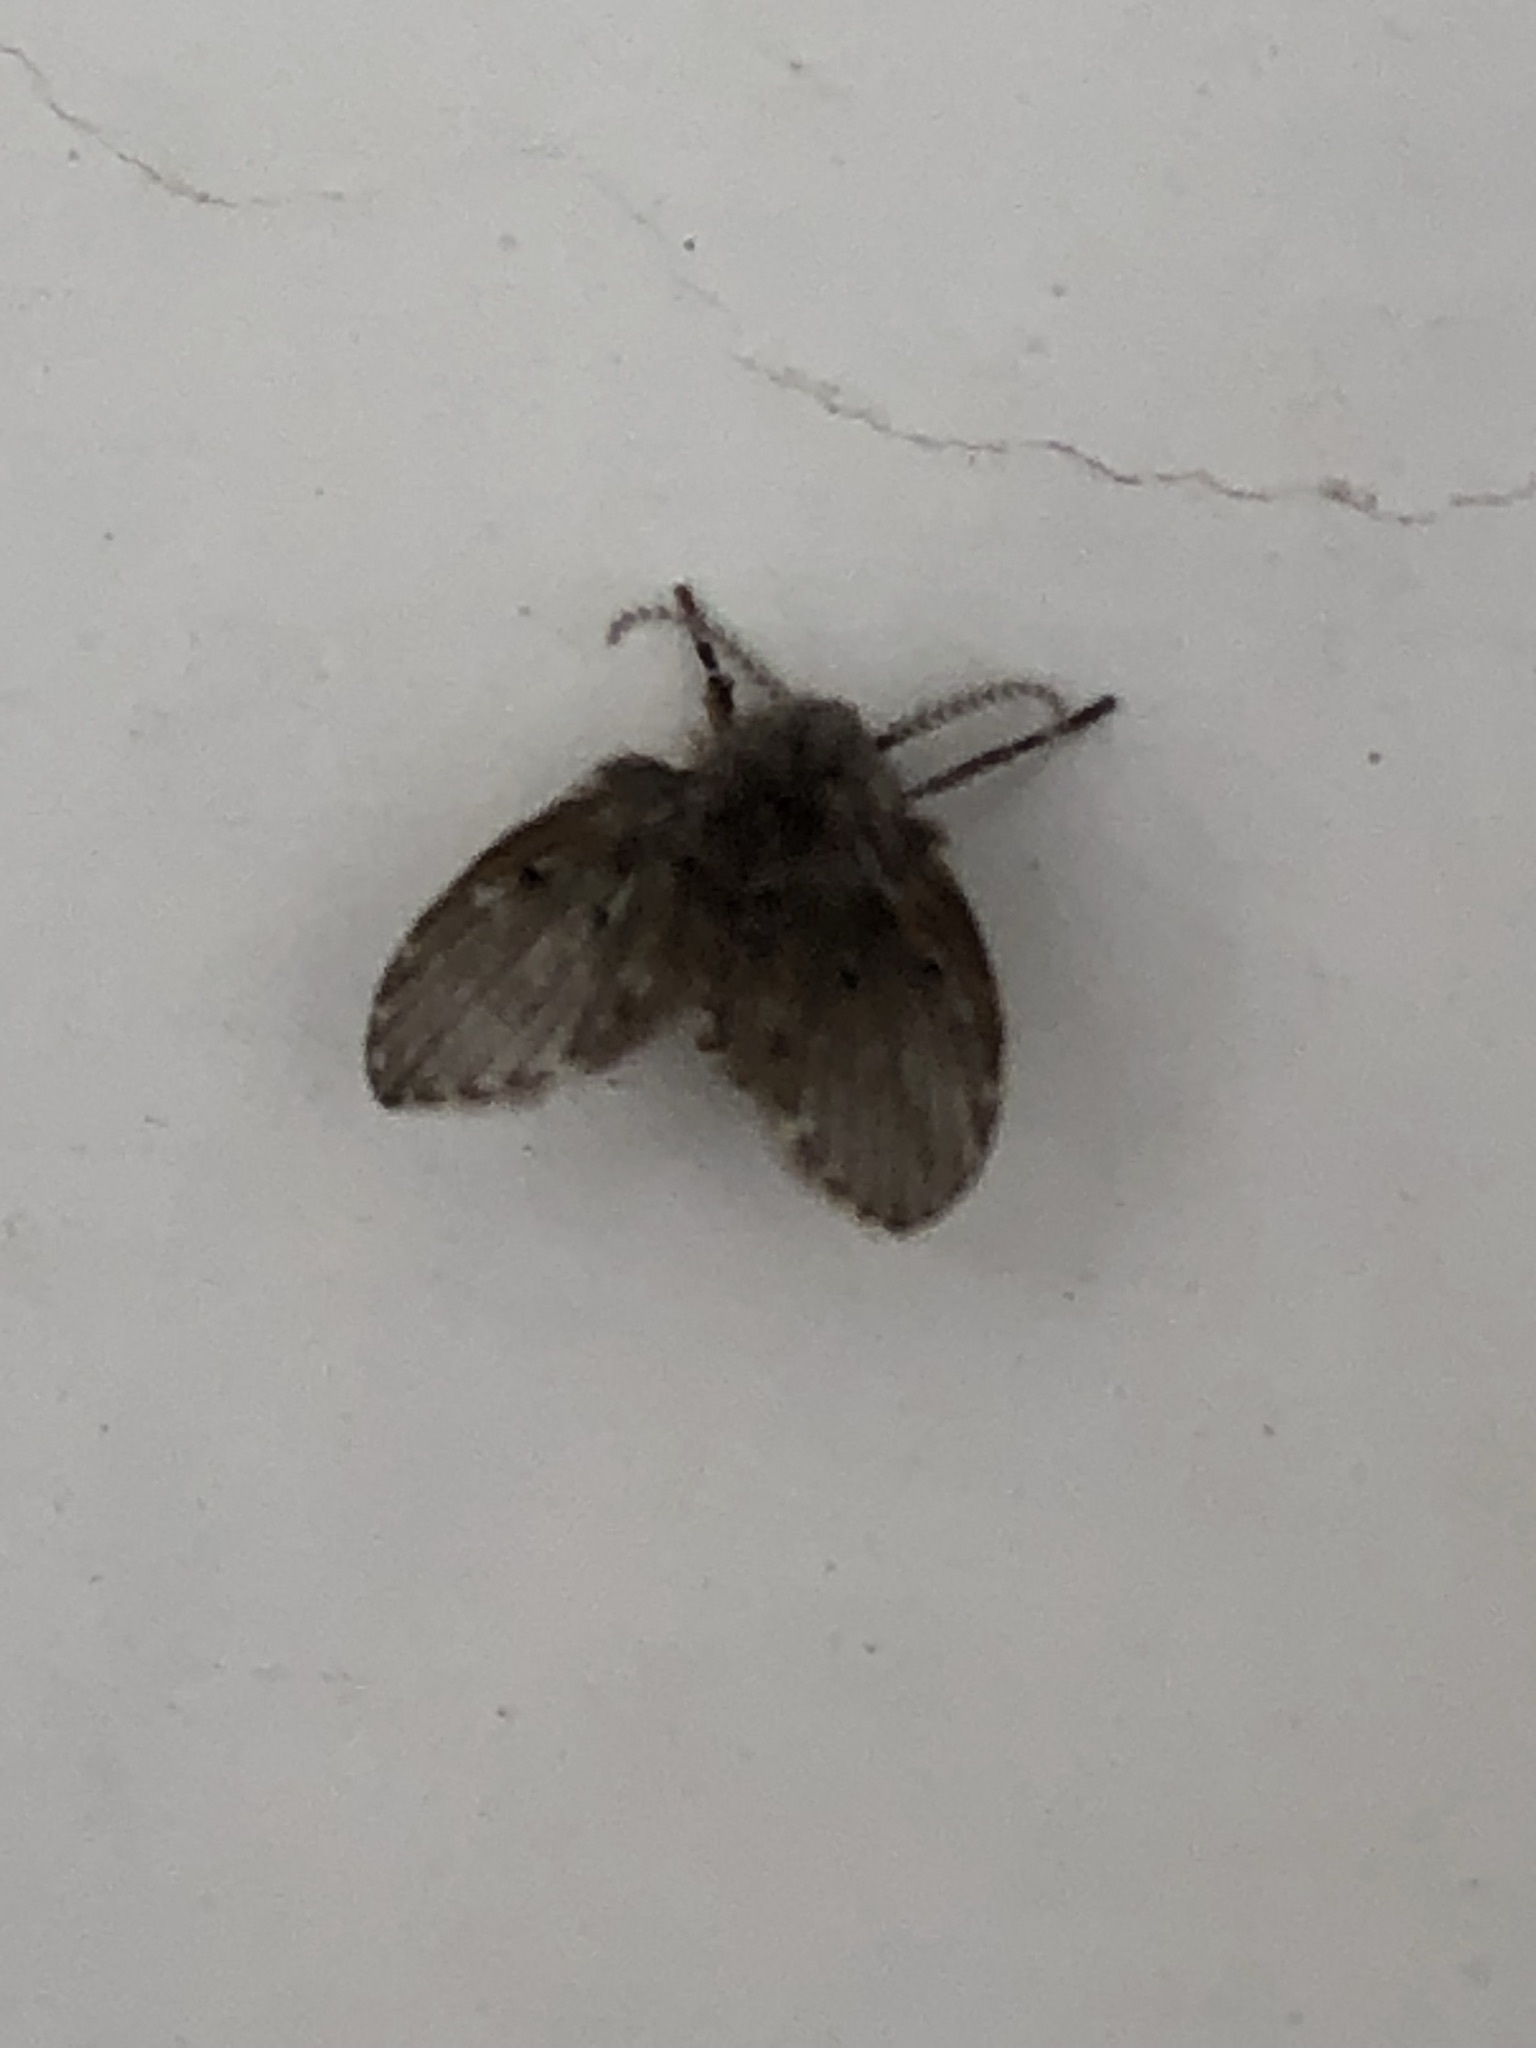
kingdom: Animalia
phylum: Arthropoda
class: Insecta
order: Diptera
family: Psychodidae
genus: Clogmia
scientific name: Clogmia albipunctatus
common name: White-spotted moth fly
